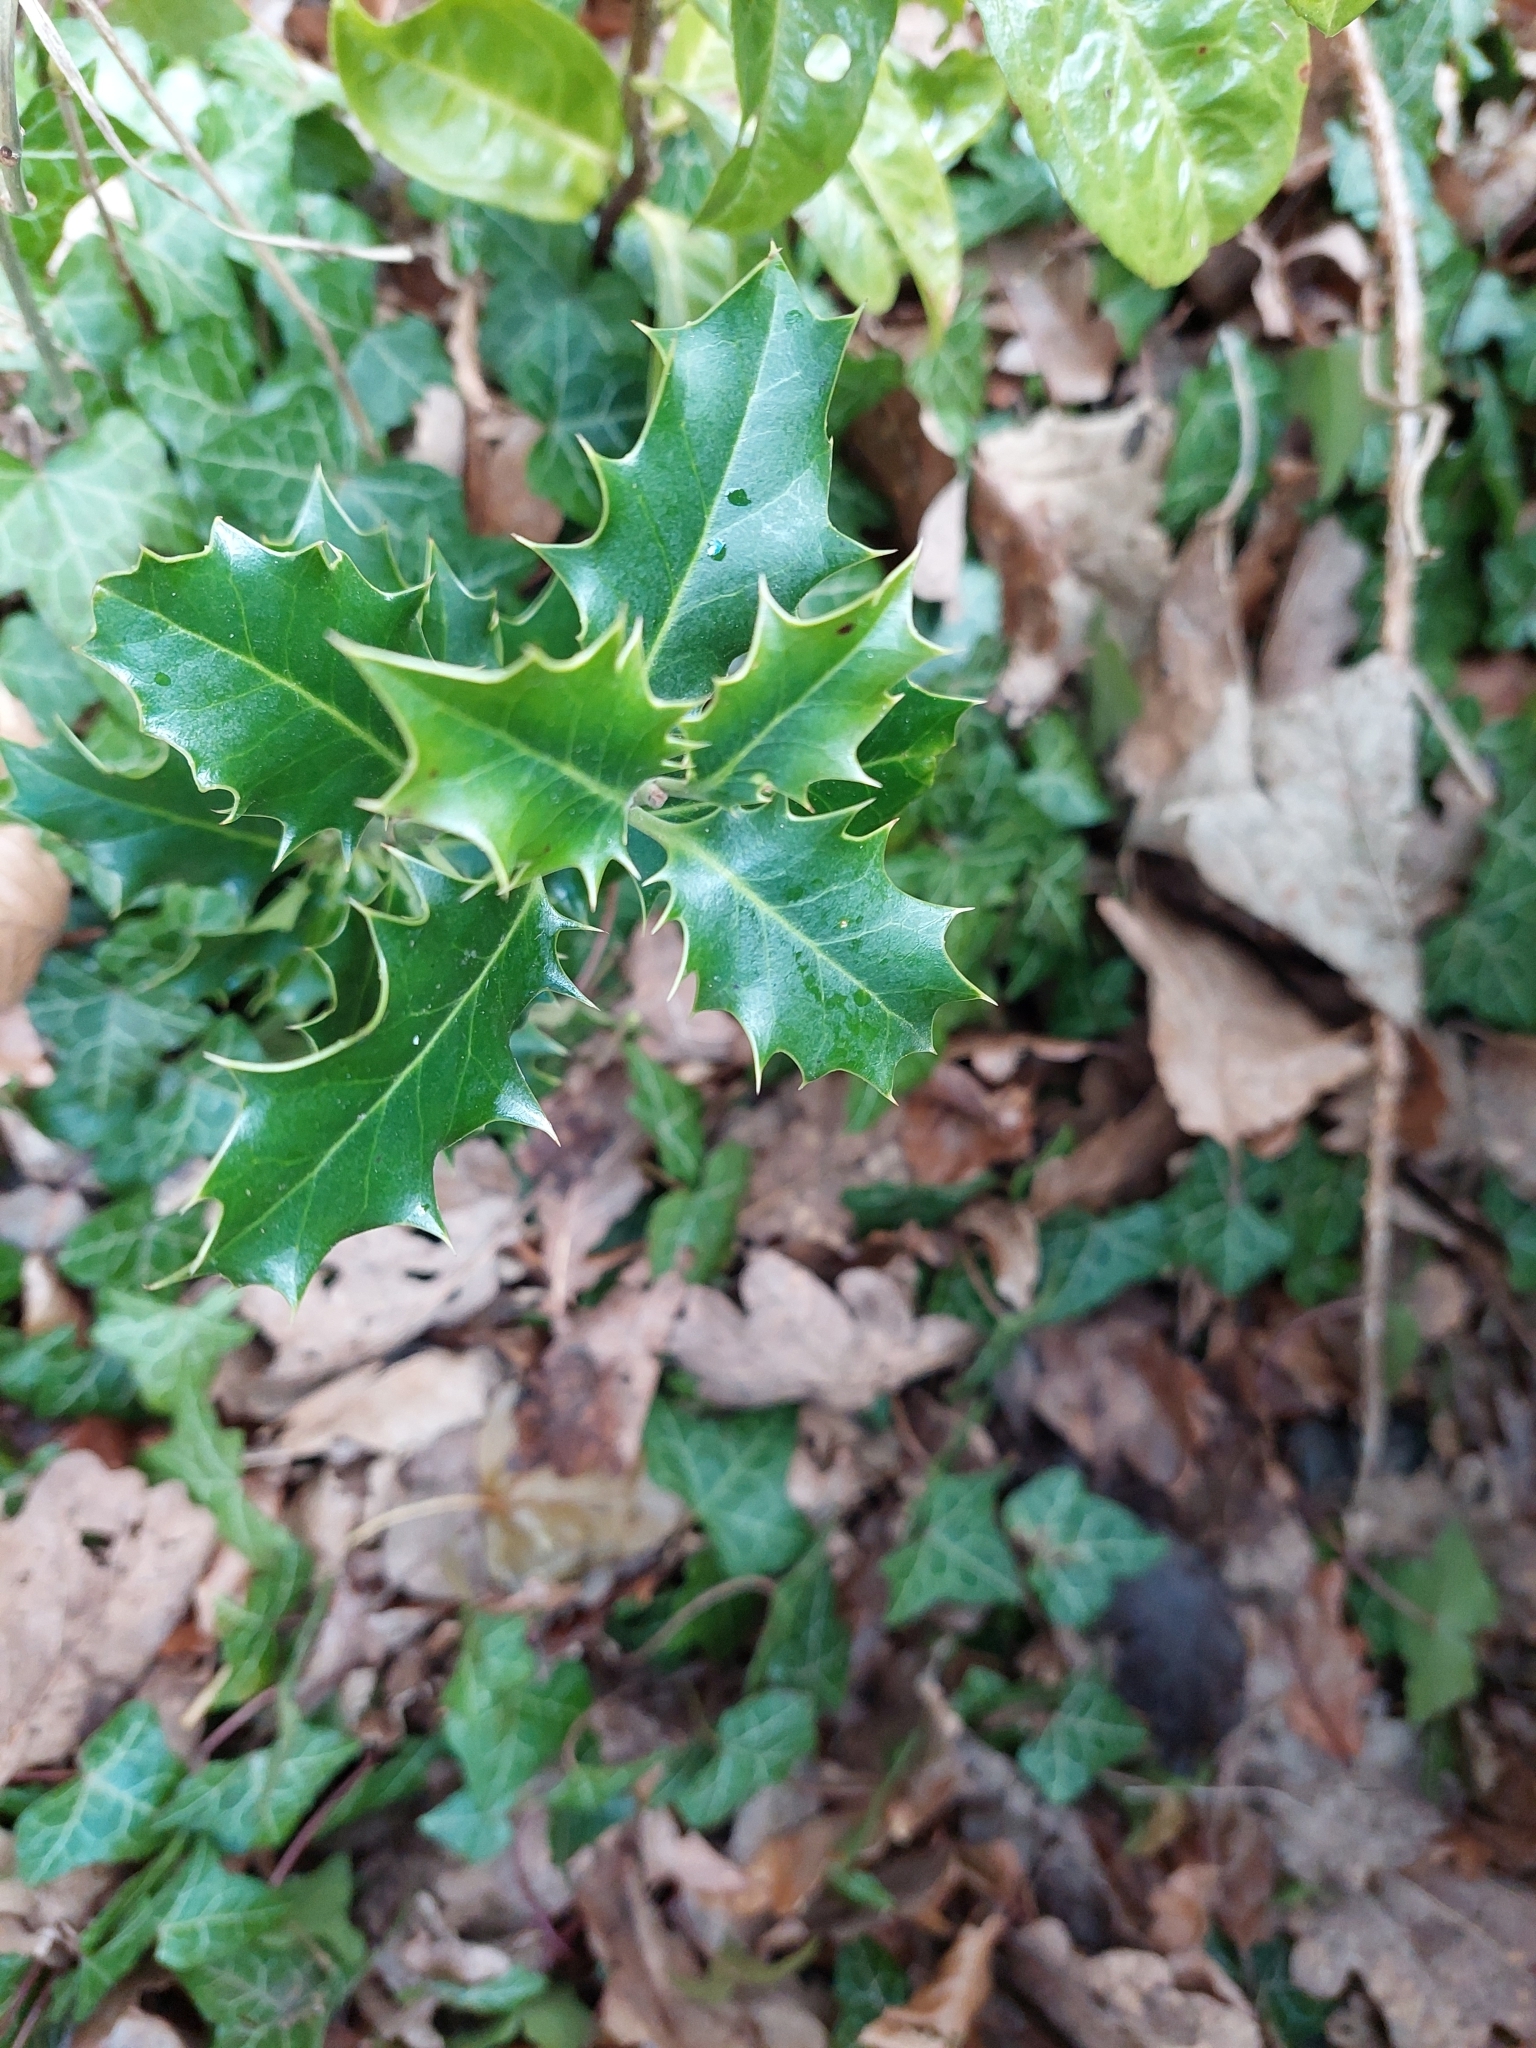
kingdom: Plantae
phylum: Tracheophyta
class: Magnoliopsida
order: Aquifoliales
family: Aquifoliaceae
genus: Ilex
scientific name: Ilex aquifolium
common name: English holly
